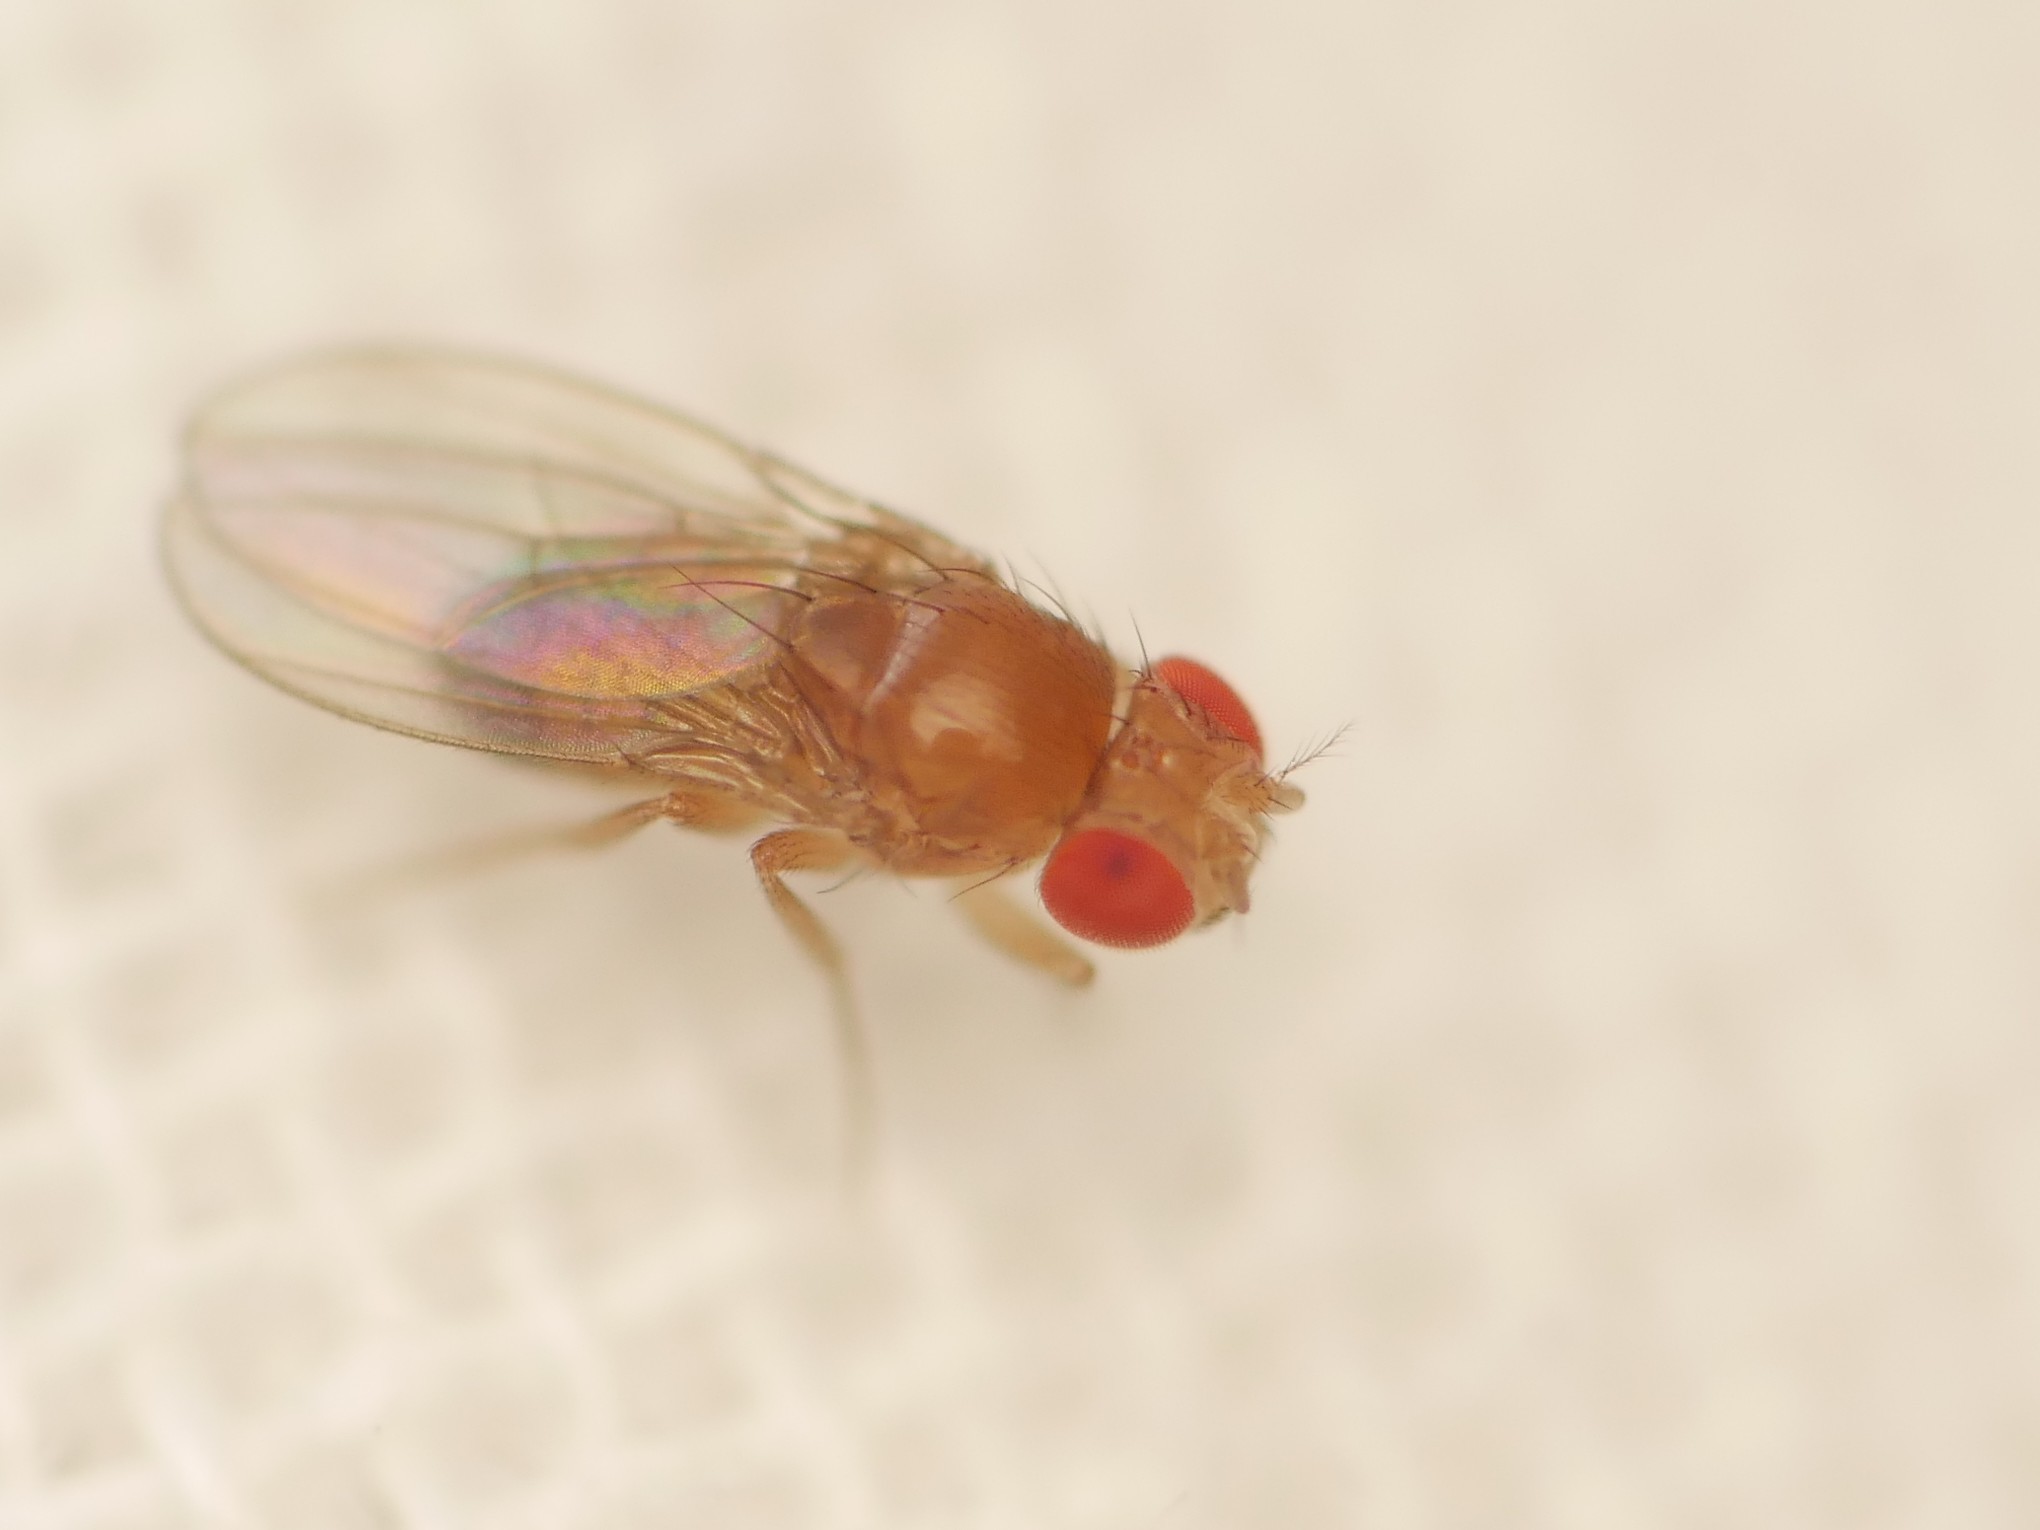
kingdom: Animalia
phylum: Arthropoda
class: Insecta
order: Diptera
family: Drosophilidae
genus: Drosophila
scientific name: Drosophila melanogaster
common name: Pomace fly
